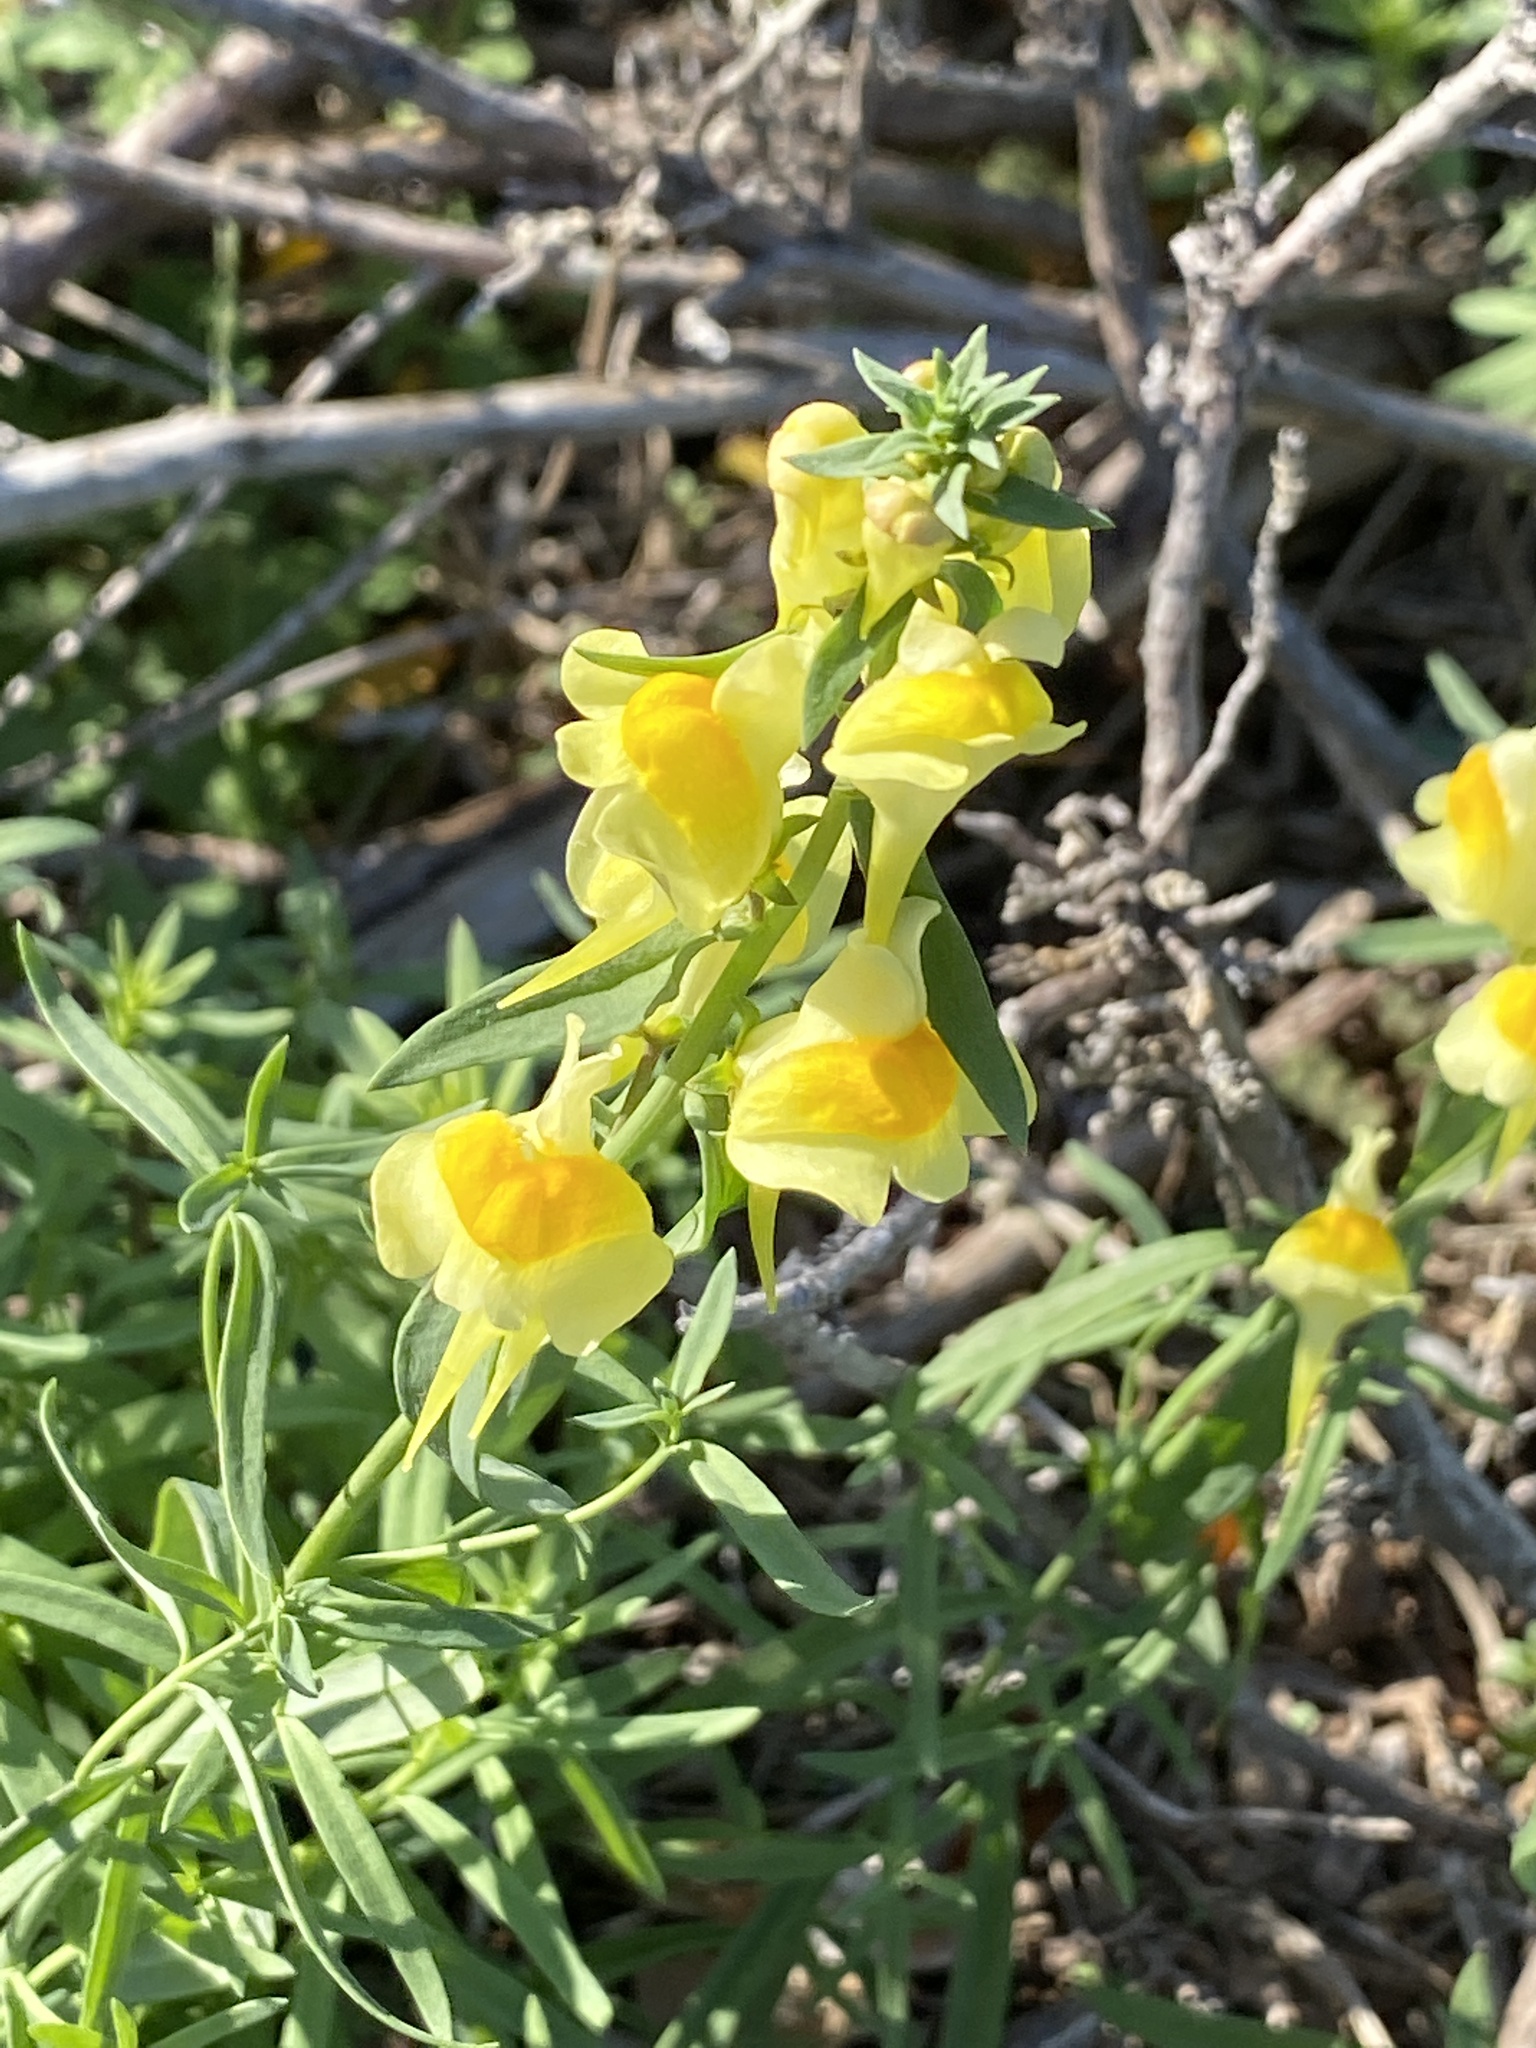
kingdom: Plantae
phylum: Tracheophyta
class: Magnoliopsida
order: Lamiales
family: Plantaginaceae
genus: Linaria
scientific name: Linaria vulgaris
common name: Butter and eggs
